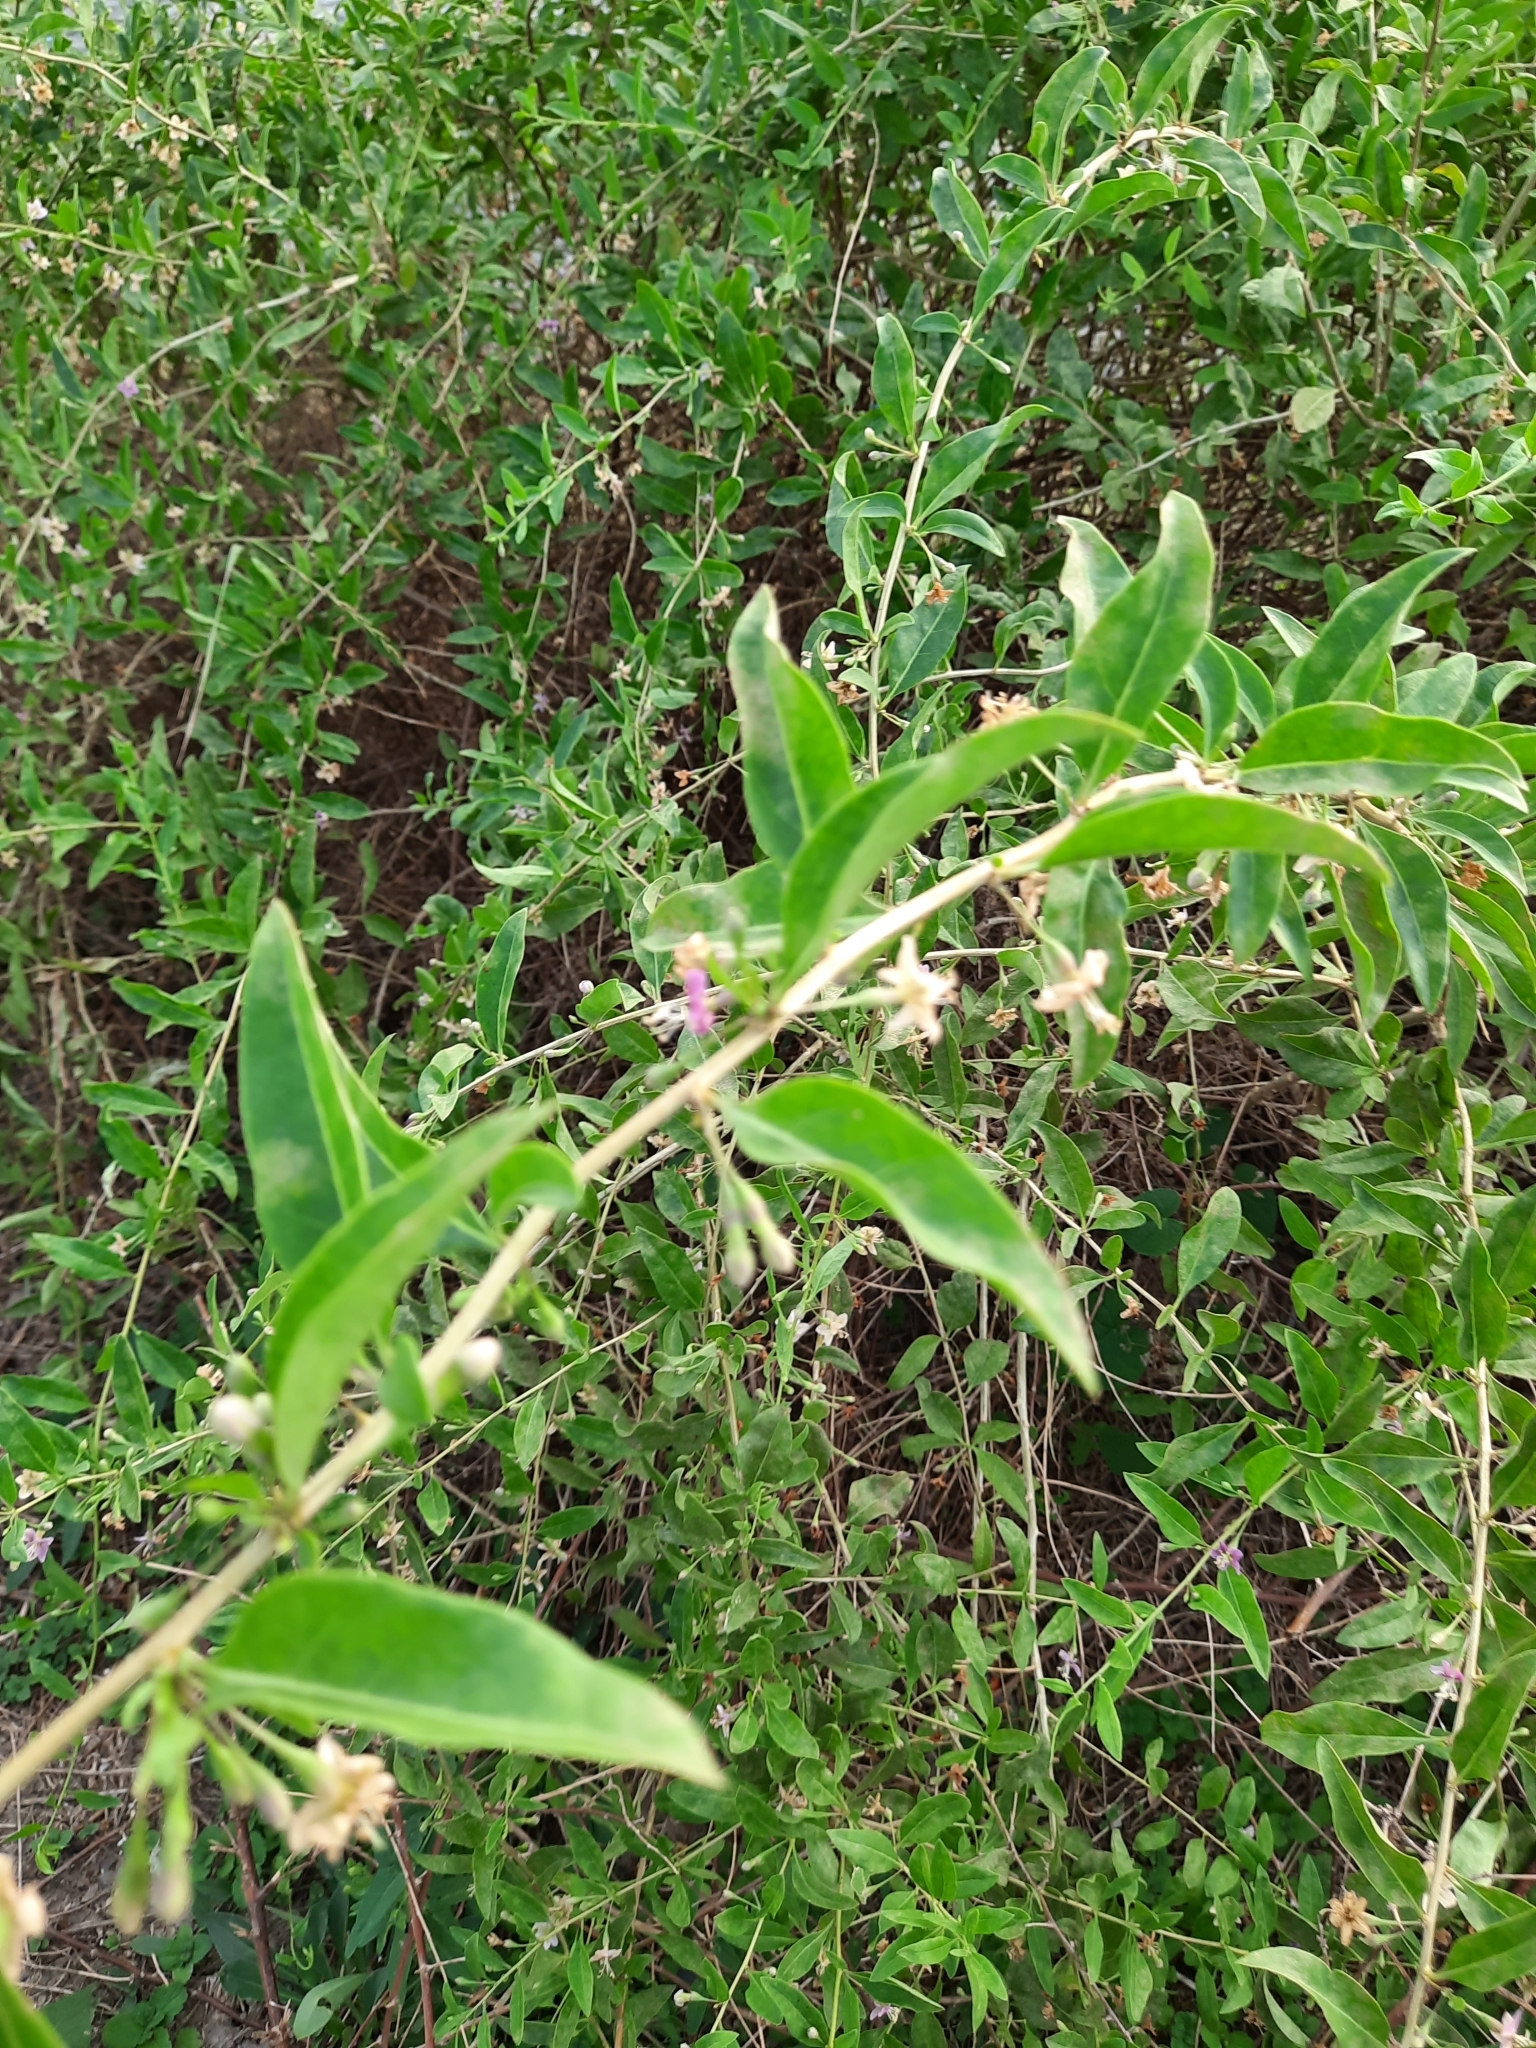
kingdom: Plantae
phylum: Tracheophyta
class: Magnoliopsida
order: Solanales
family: Solanaceae
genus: Lycium
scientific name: Lycium barbarum
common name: Duke of argyll's teaplant
